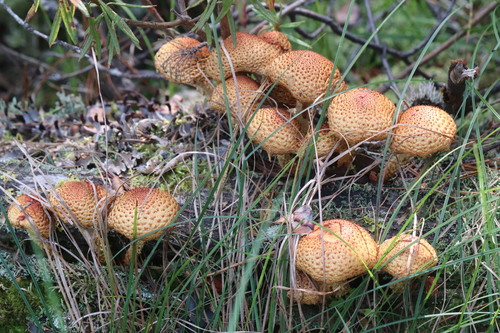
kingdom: Fungi
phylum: Basidiomycota
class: Agaricomycetes
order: Agaricales
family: Strophariaceae
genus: Pholiota
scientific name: Pholiota squarrosa
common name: Shaggy pholiota
